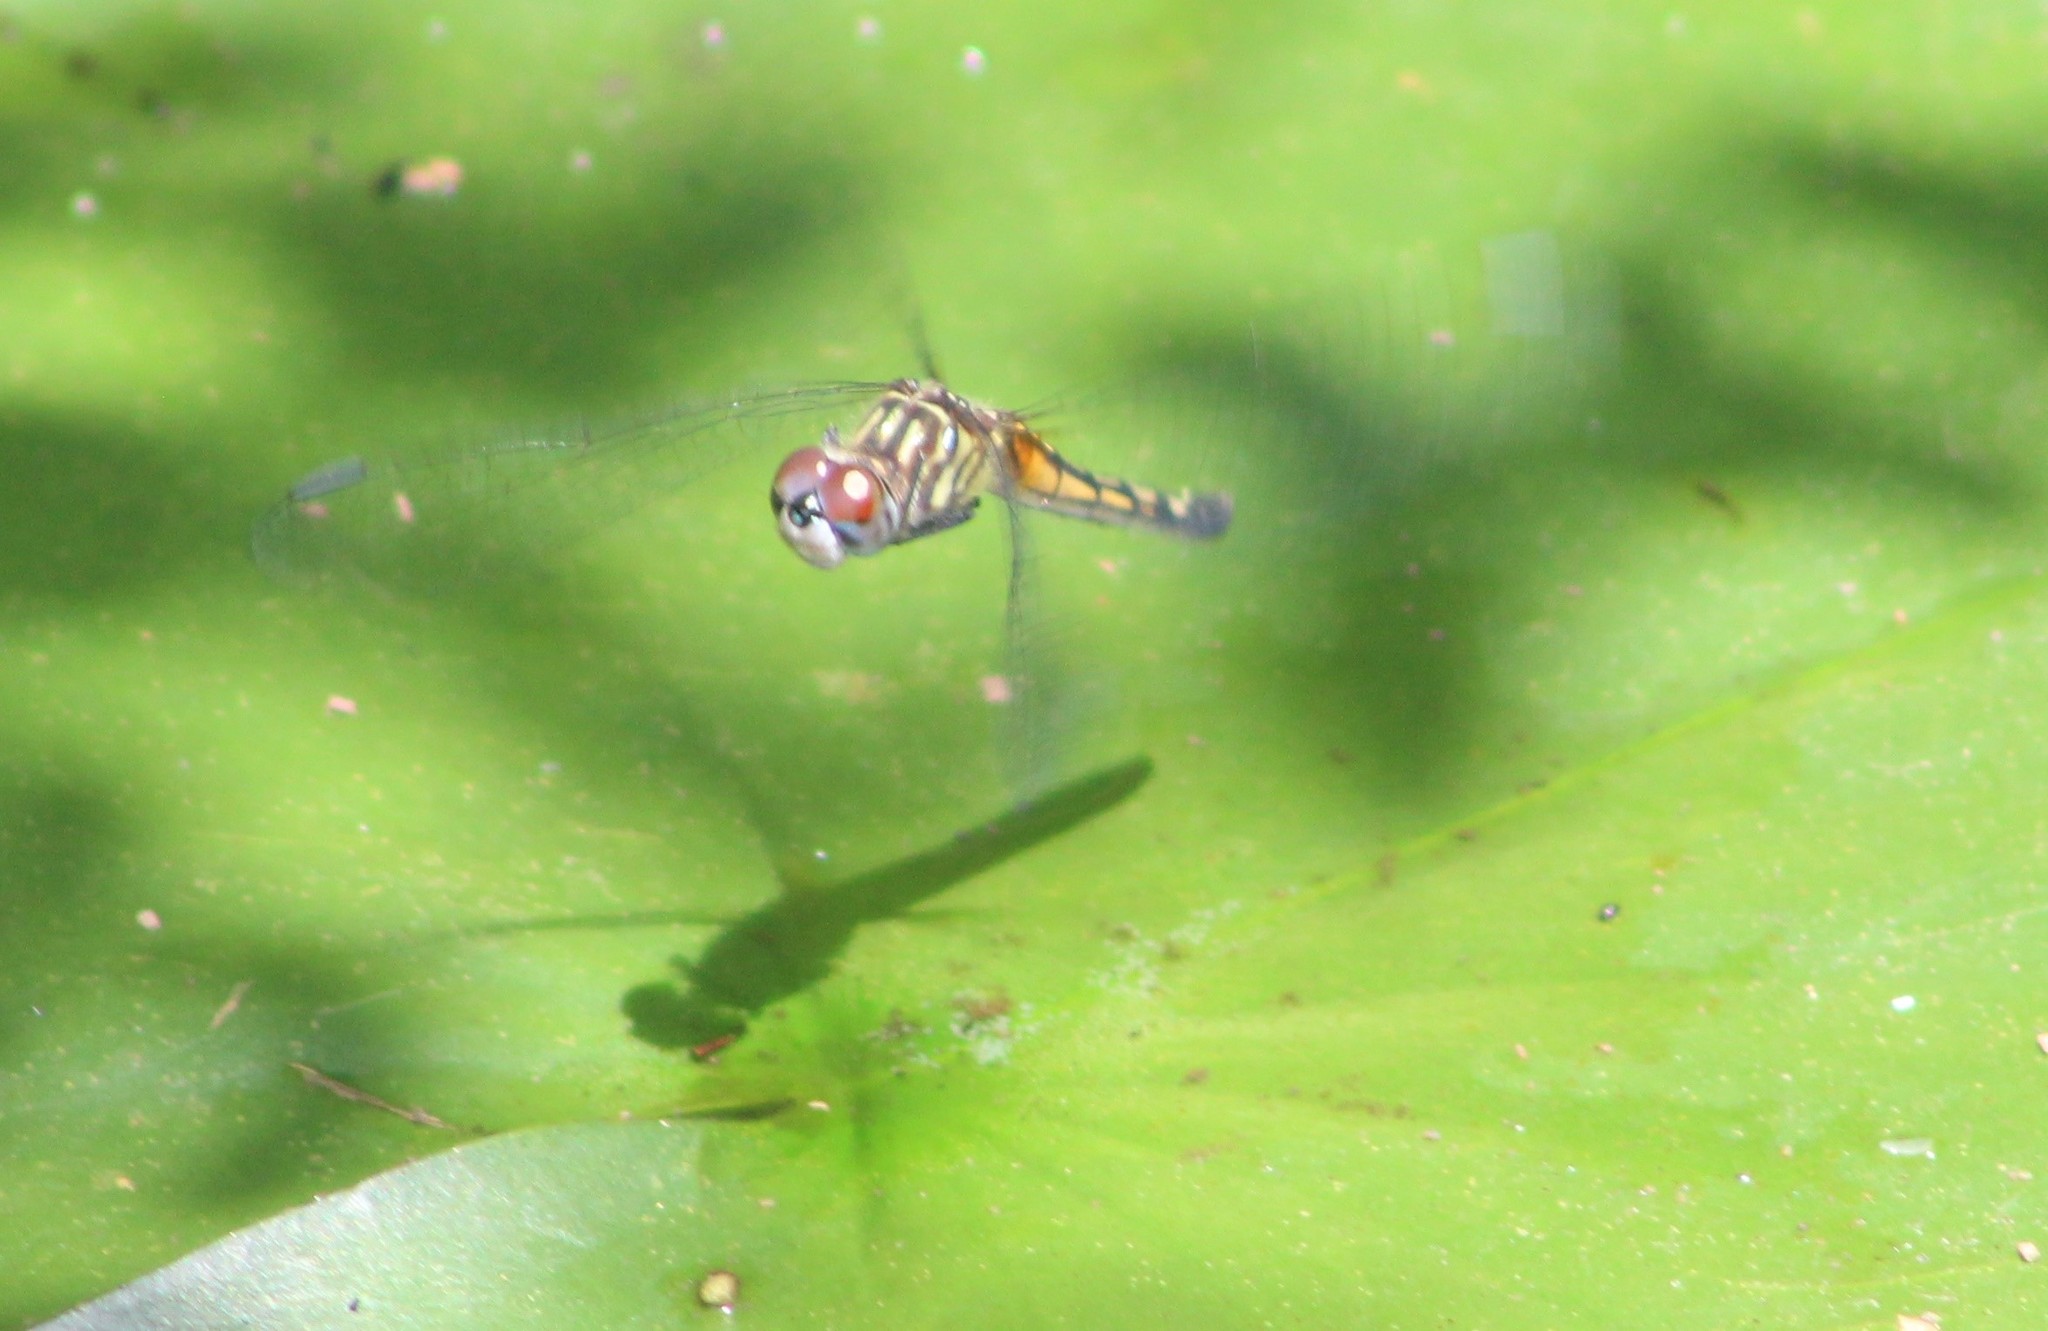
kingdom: Animalia
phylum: Arthropoda
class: Insecta
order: Odonata
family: Libellulidae
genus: Pachydiplax
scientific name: Pachydiplax longipennis
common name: Blue dasher
